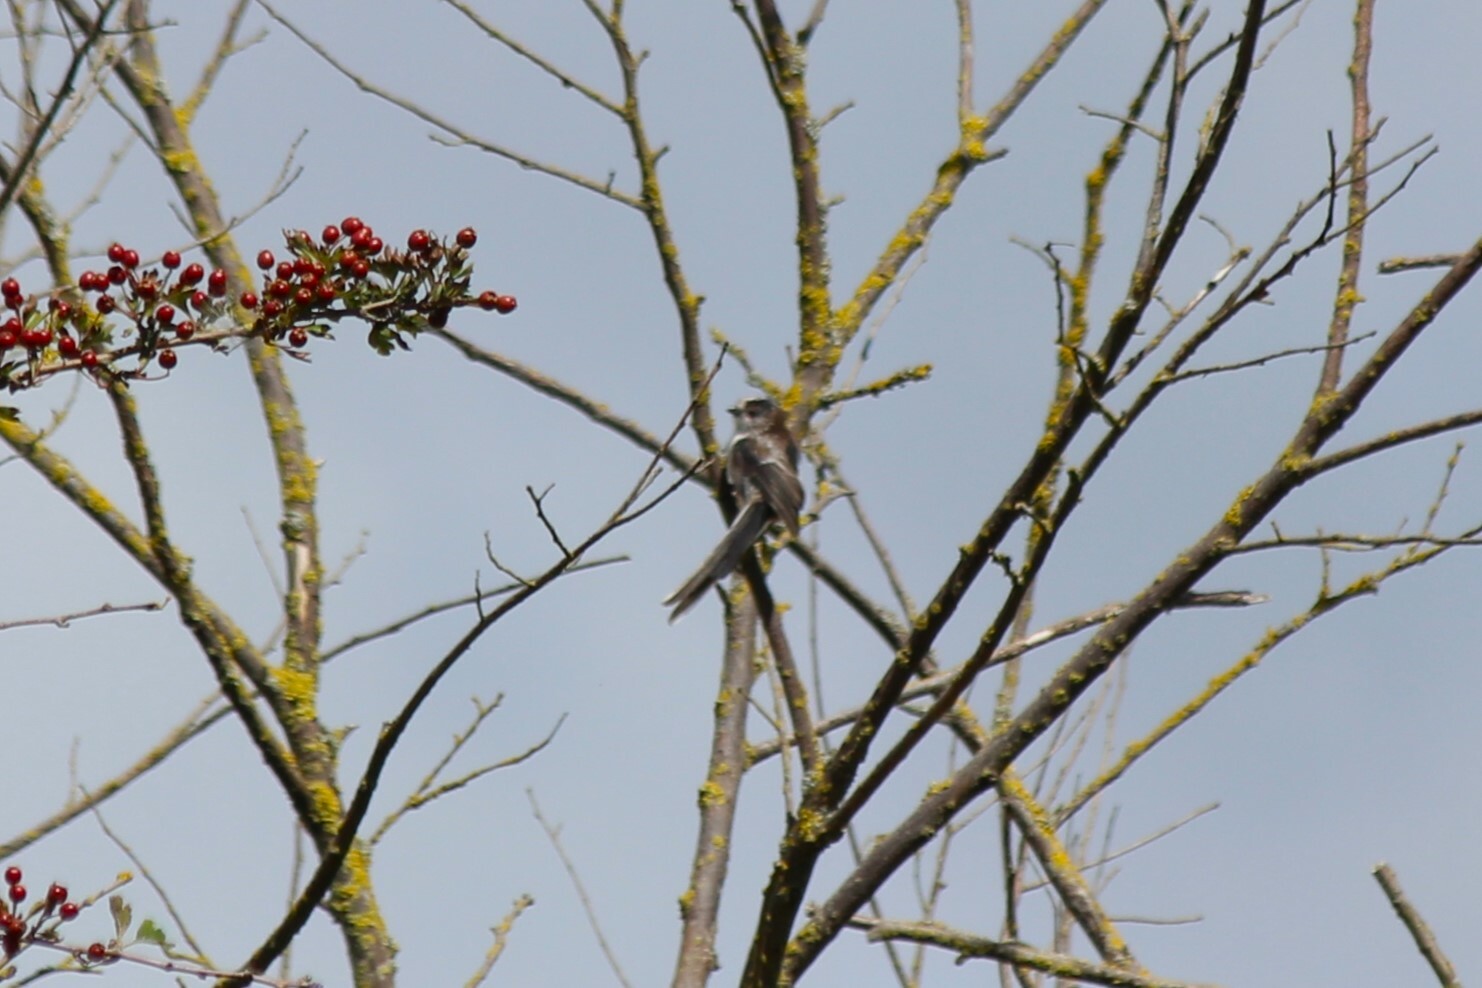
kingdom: Animalia
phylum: Chordata
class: Aves
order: Passeriformes
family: Aegithalidae
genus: Aegithalos
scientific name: Aegithalos caudatus
